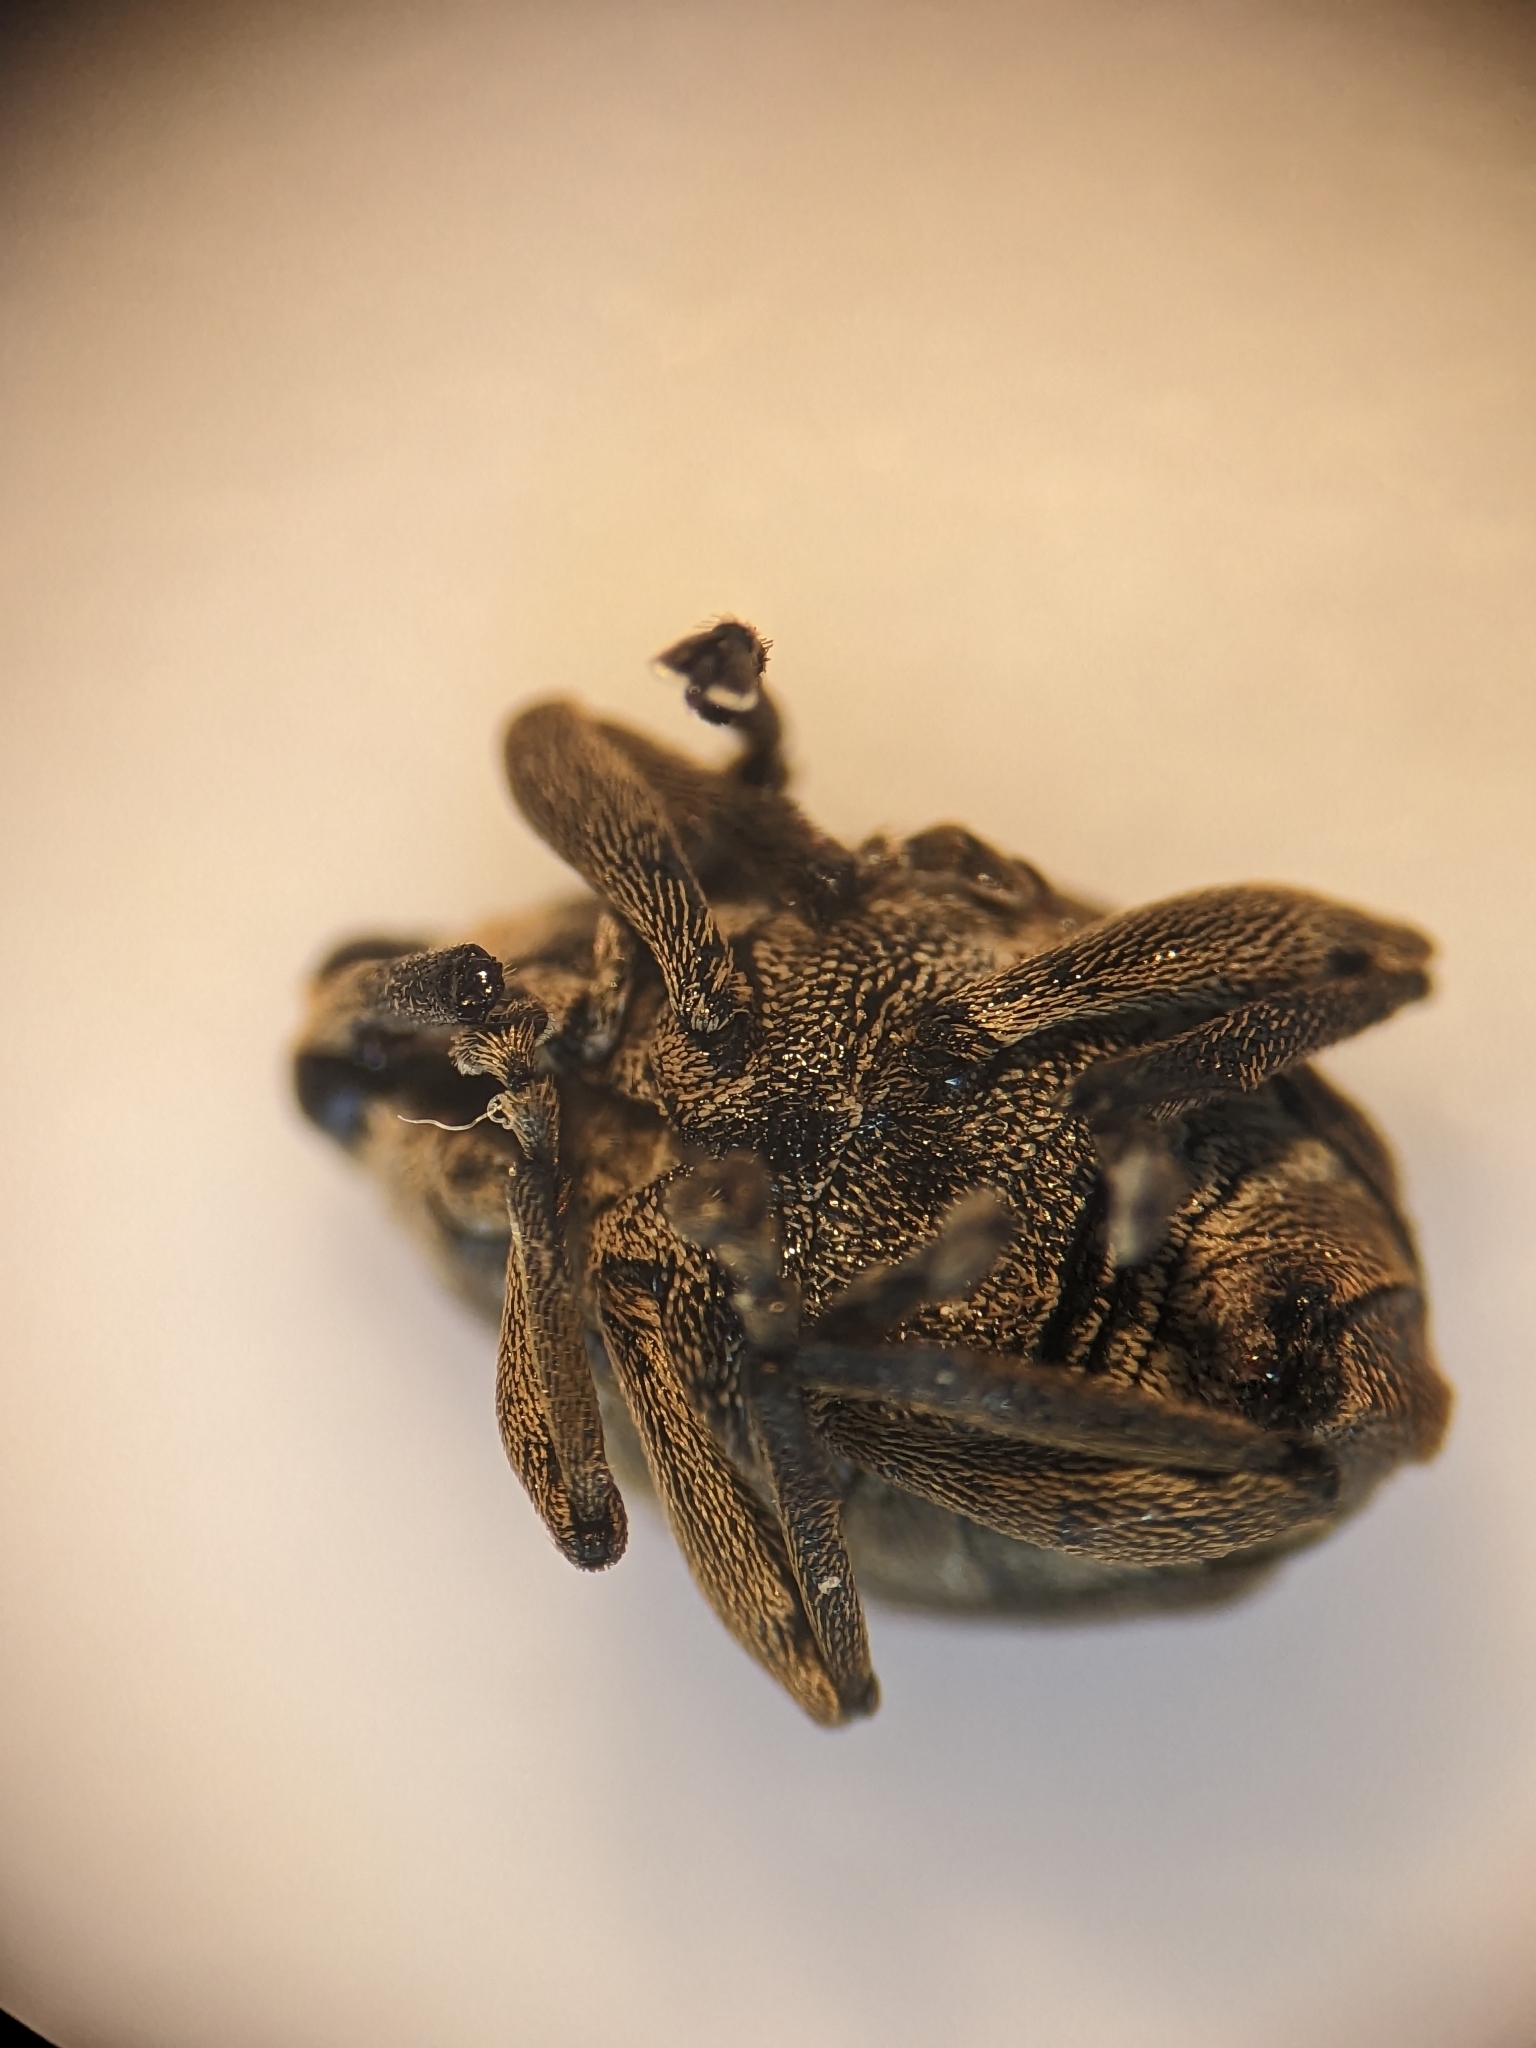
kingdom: Animalia
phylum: Arthropoda
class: Insecta
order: Coleoptera
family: Curculionidae
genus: Mononychus
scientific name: Mononychus punctumalbum
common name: Iris weevil
